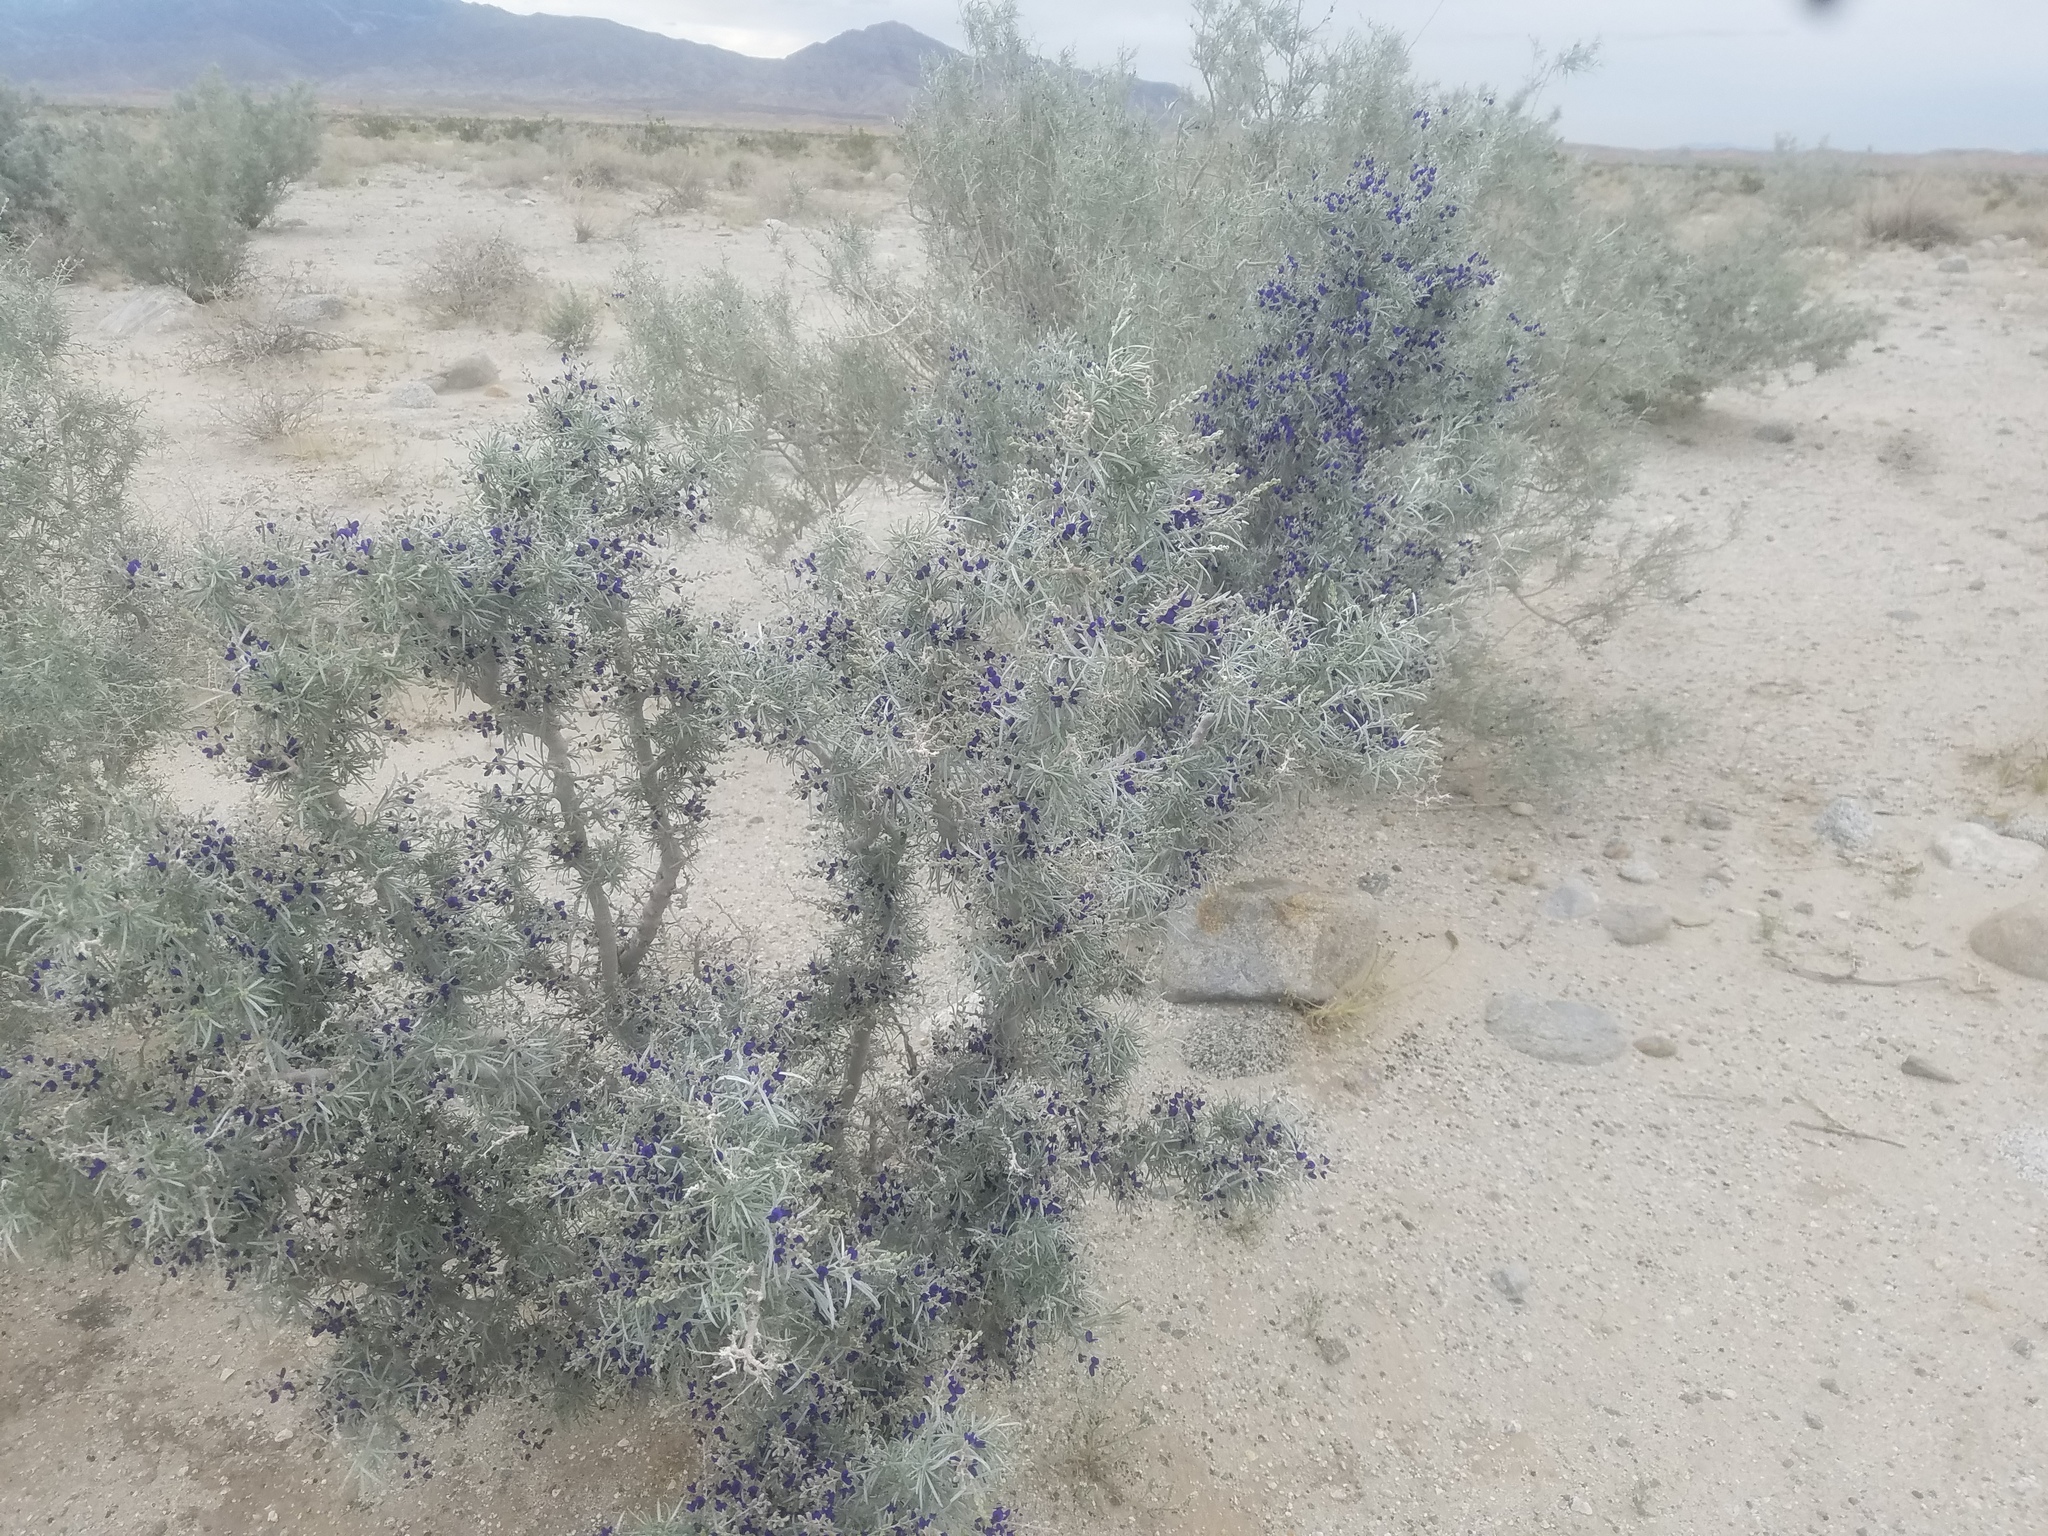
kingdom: Plantae
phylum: Tracheophyta
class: Magnoliopsida
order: Fabales
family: Fabaceae
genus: Psorothamnus
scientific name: Psorothamnus schottii
